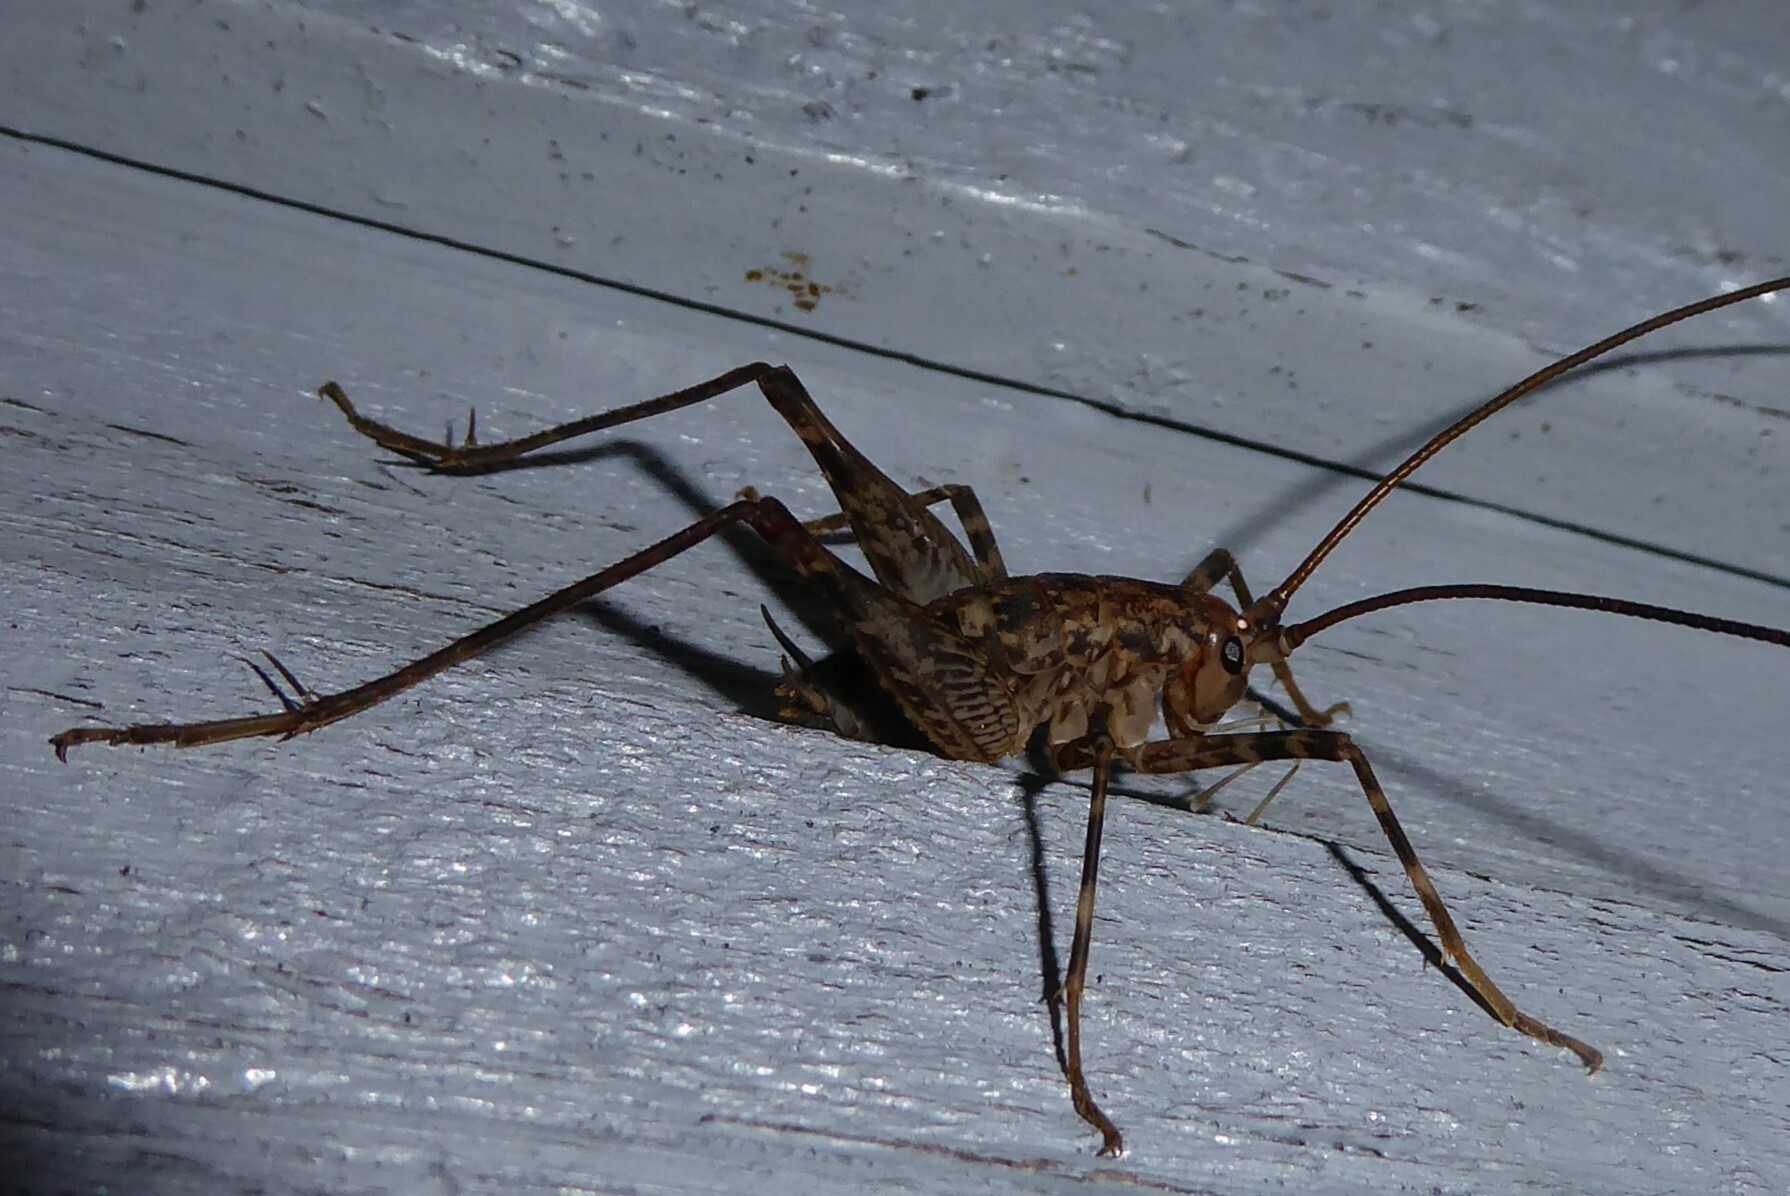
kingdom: Animalia
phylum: Arthropoda
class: Insecta
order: Orthoptera
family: Rhaphidophoridae
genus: Pleioplectron
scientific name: Pleioplectron simplex
